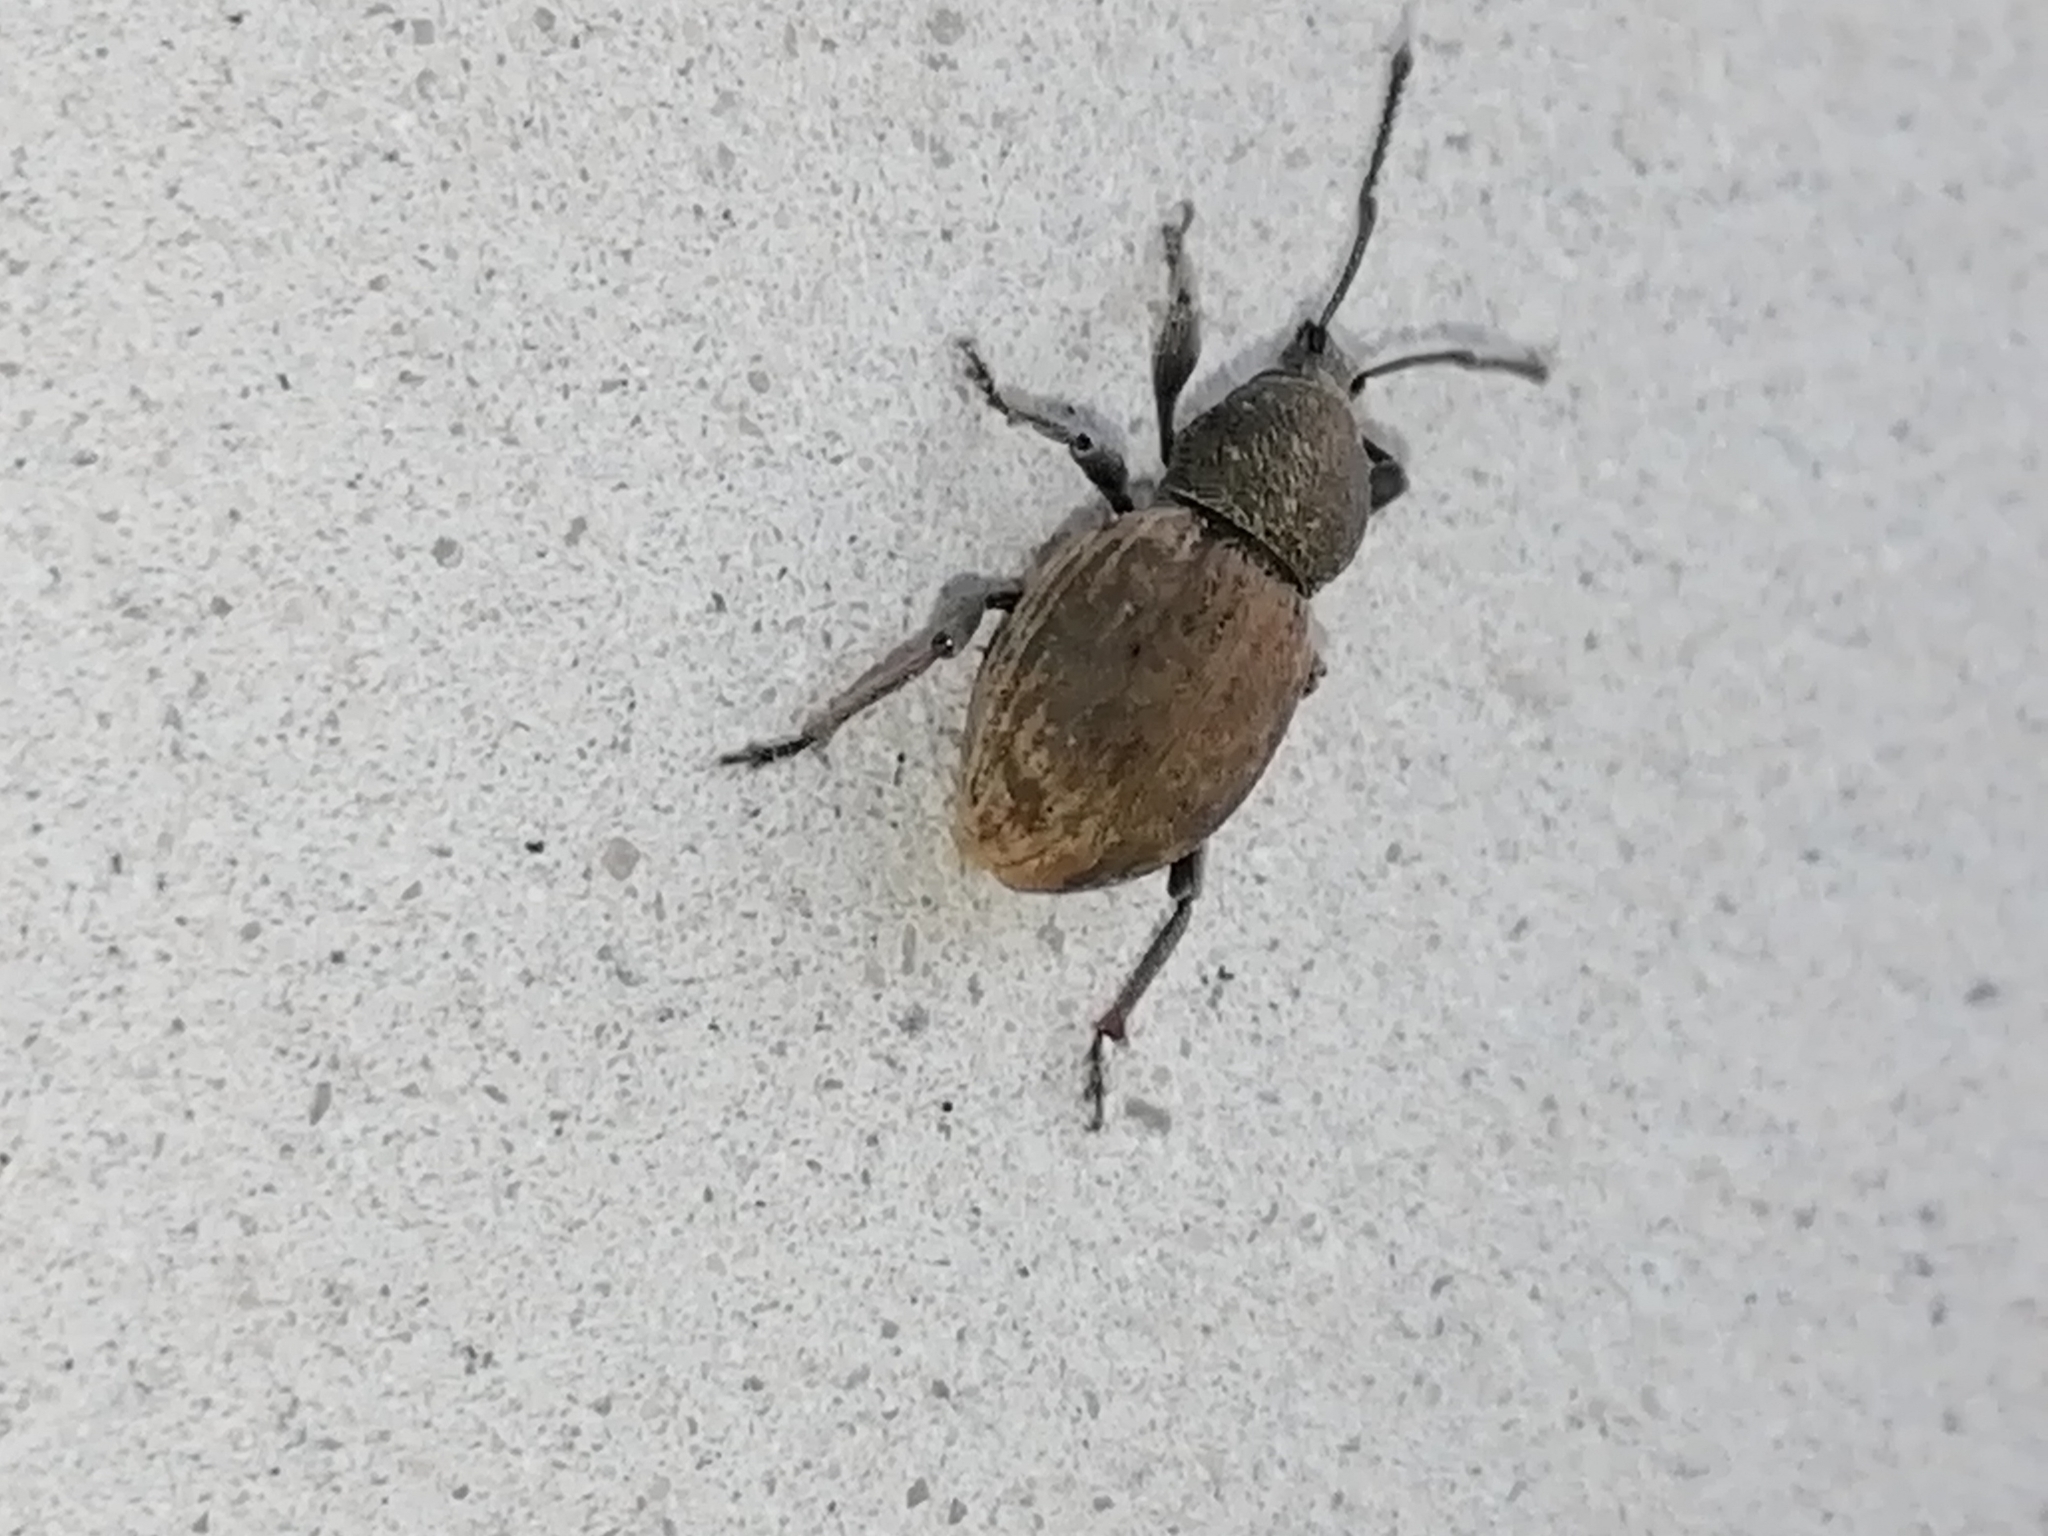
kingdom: Animalia
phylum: Arthropoda
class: Insecta
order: Coleoptera
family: Curculionidae
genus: Otiorhynchus
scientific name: Otiorhynchus raucus
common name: Weevil
